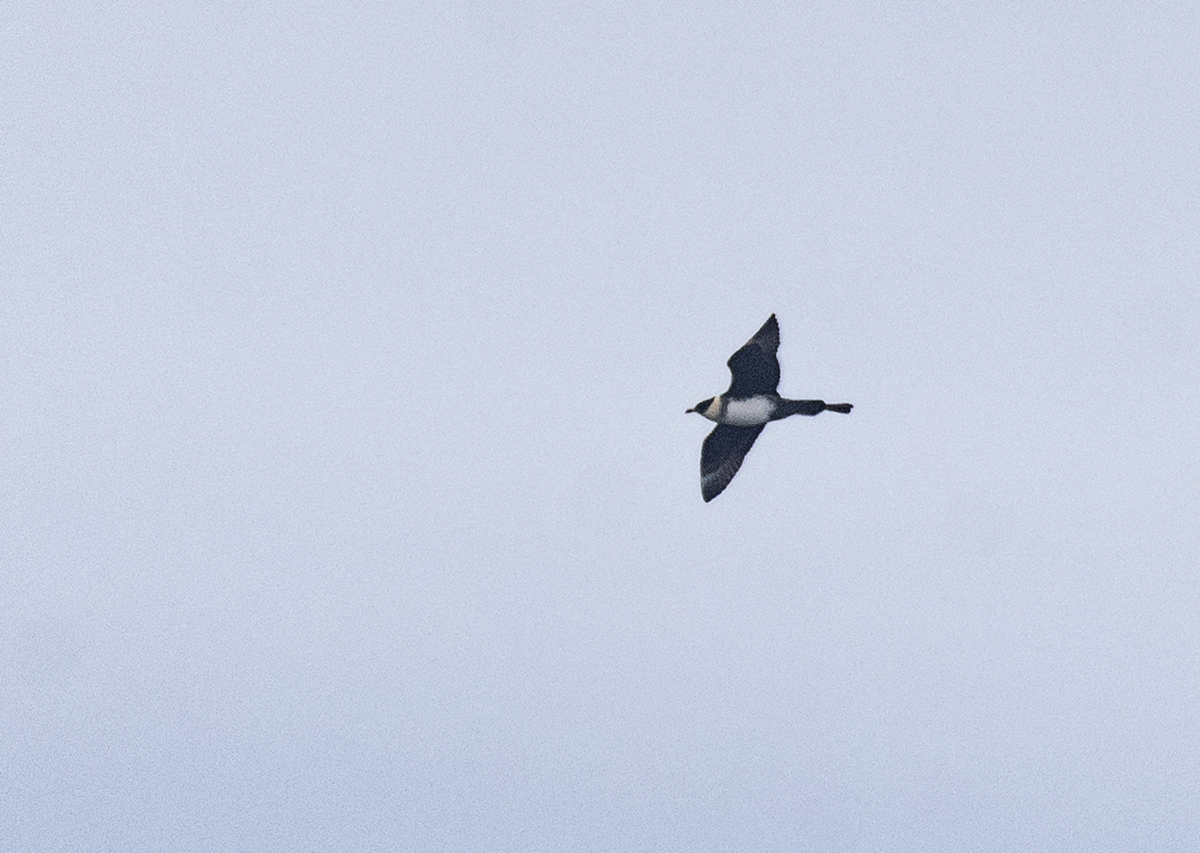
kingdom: Animalia
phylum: Chordata
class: Aves
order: Charadriiformes
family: Stercorariidae
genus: Stercorarius
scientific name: Stercorarius pomarinus
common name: Pomarine jaeger
